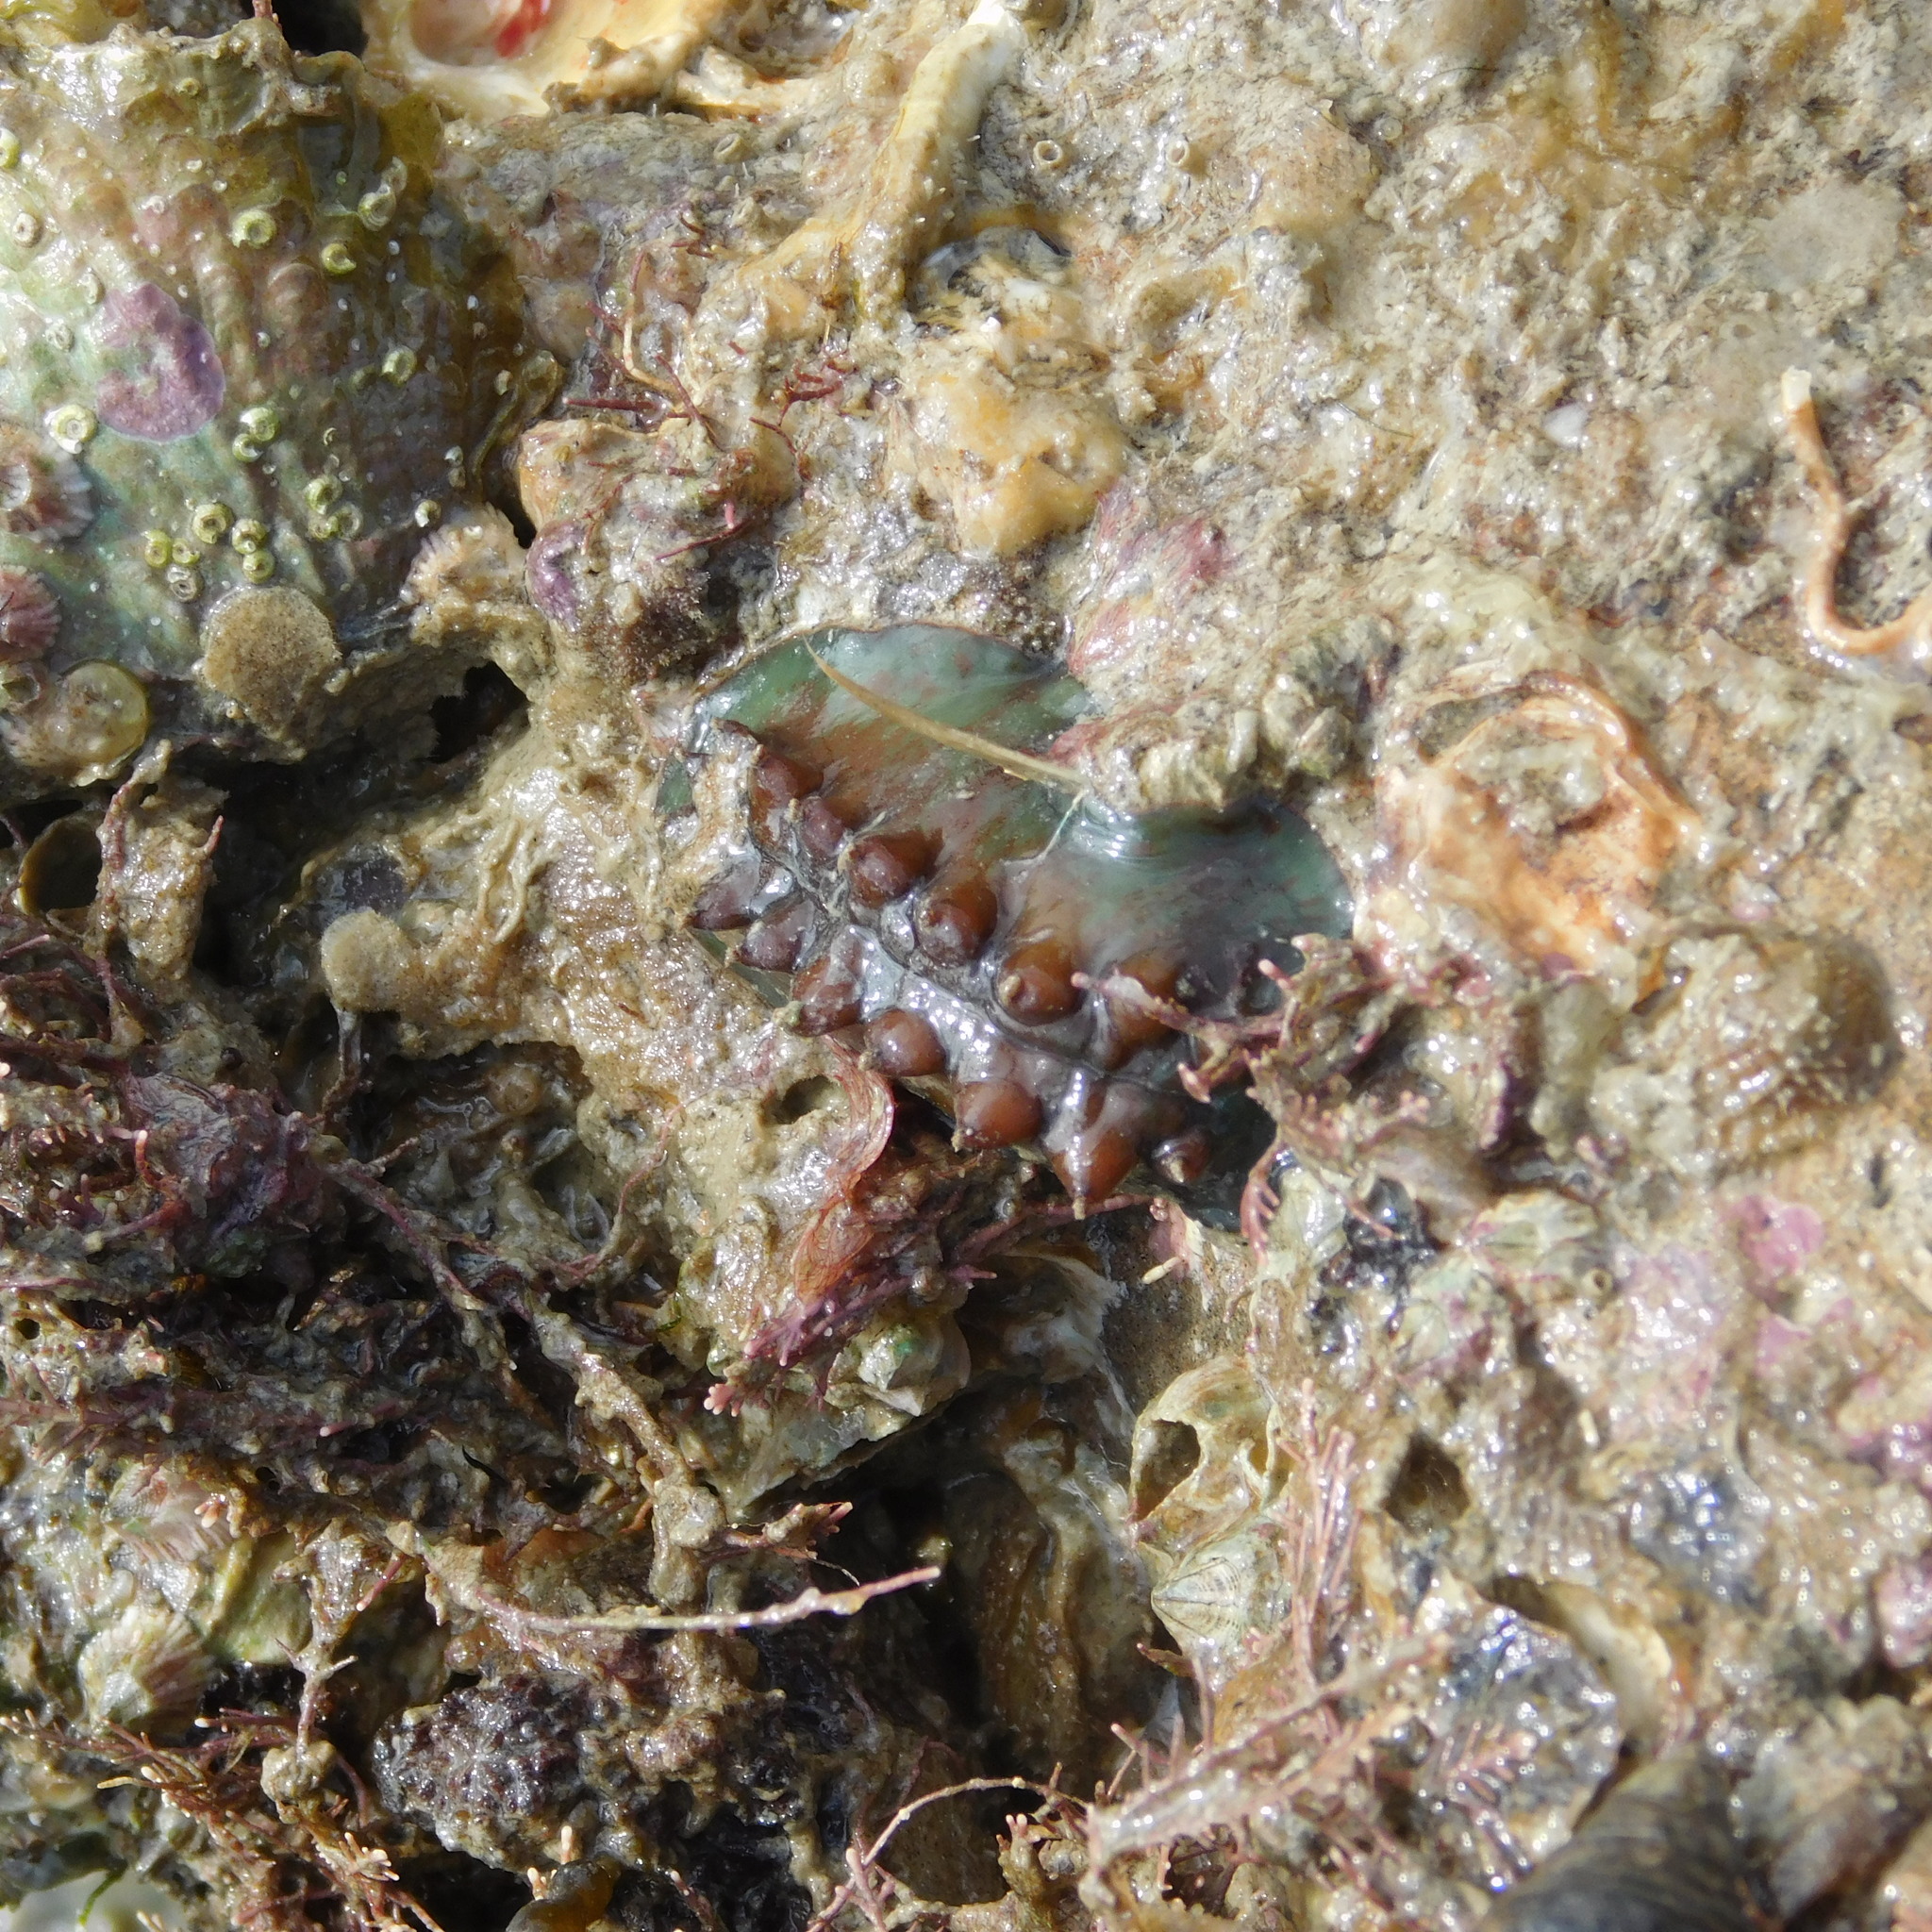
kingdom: Animalia
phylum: Mollusca
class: Polyplacophora
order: Chitonida
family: Acanthochitonidae
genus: Cryptoconchus
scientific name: Cryptoconchus porosus
